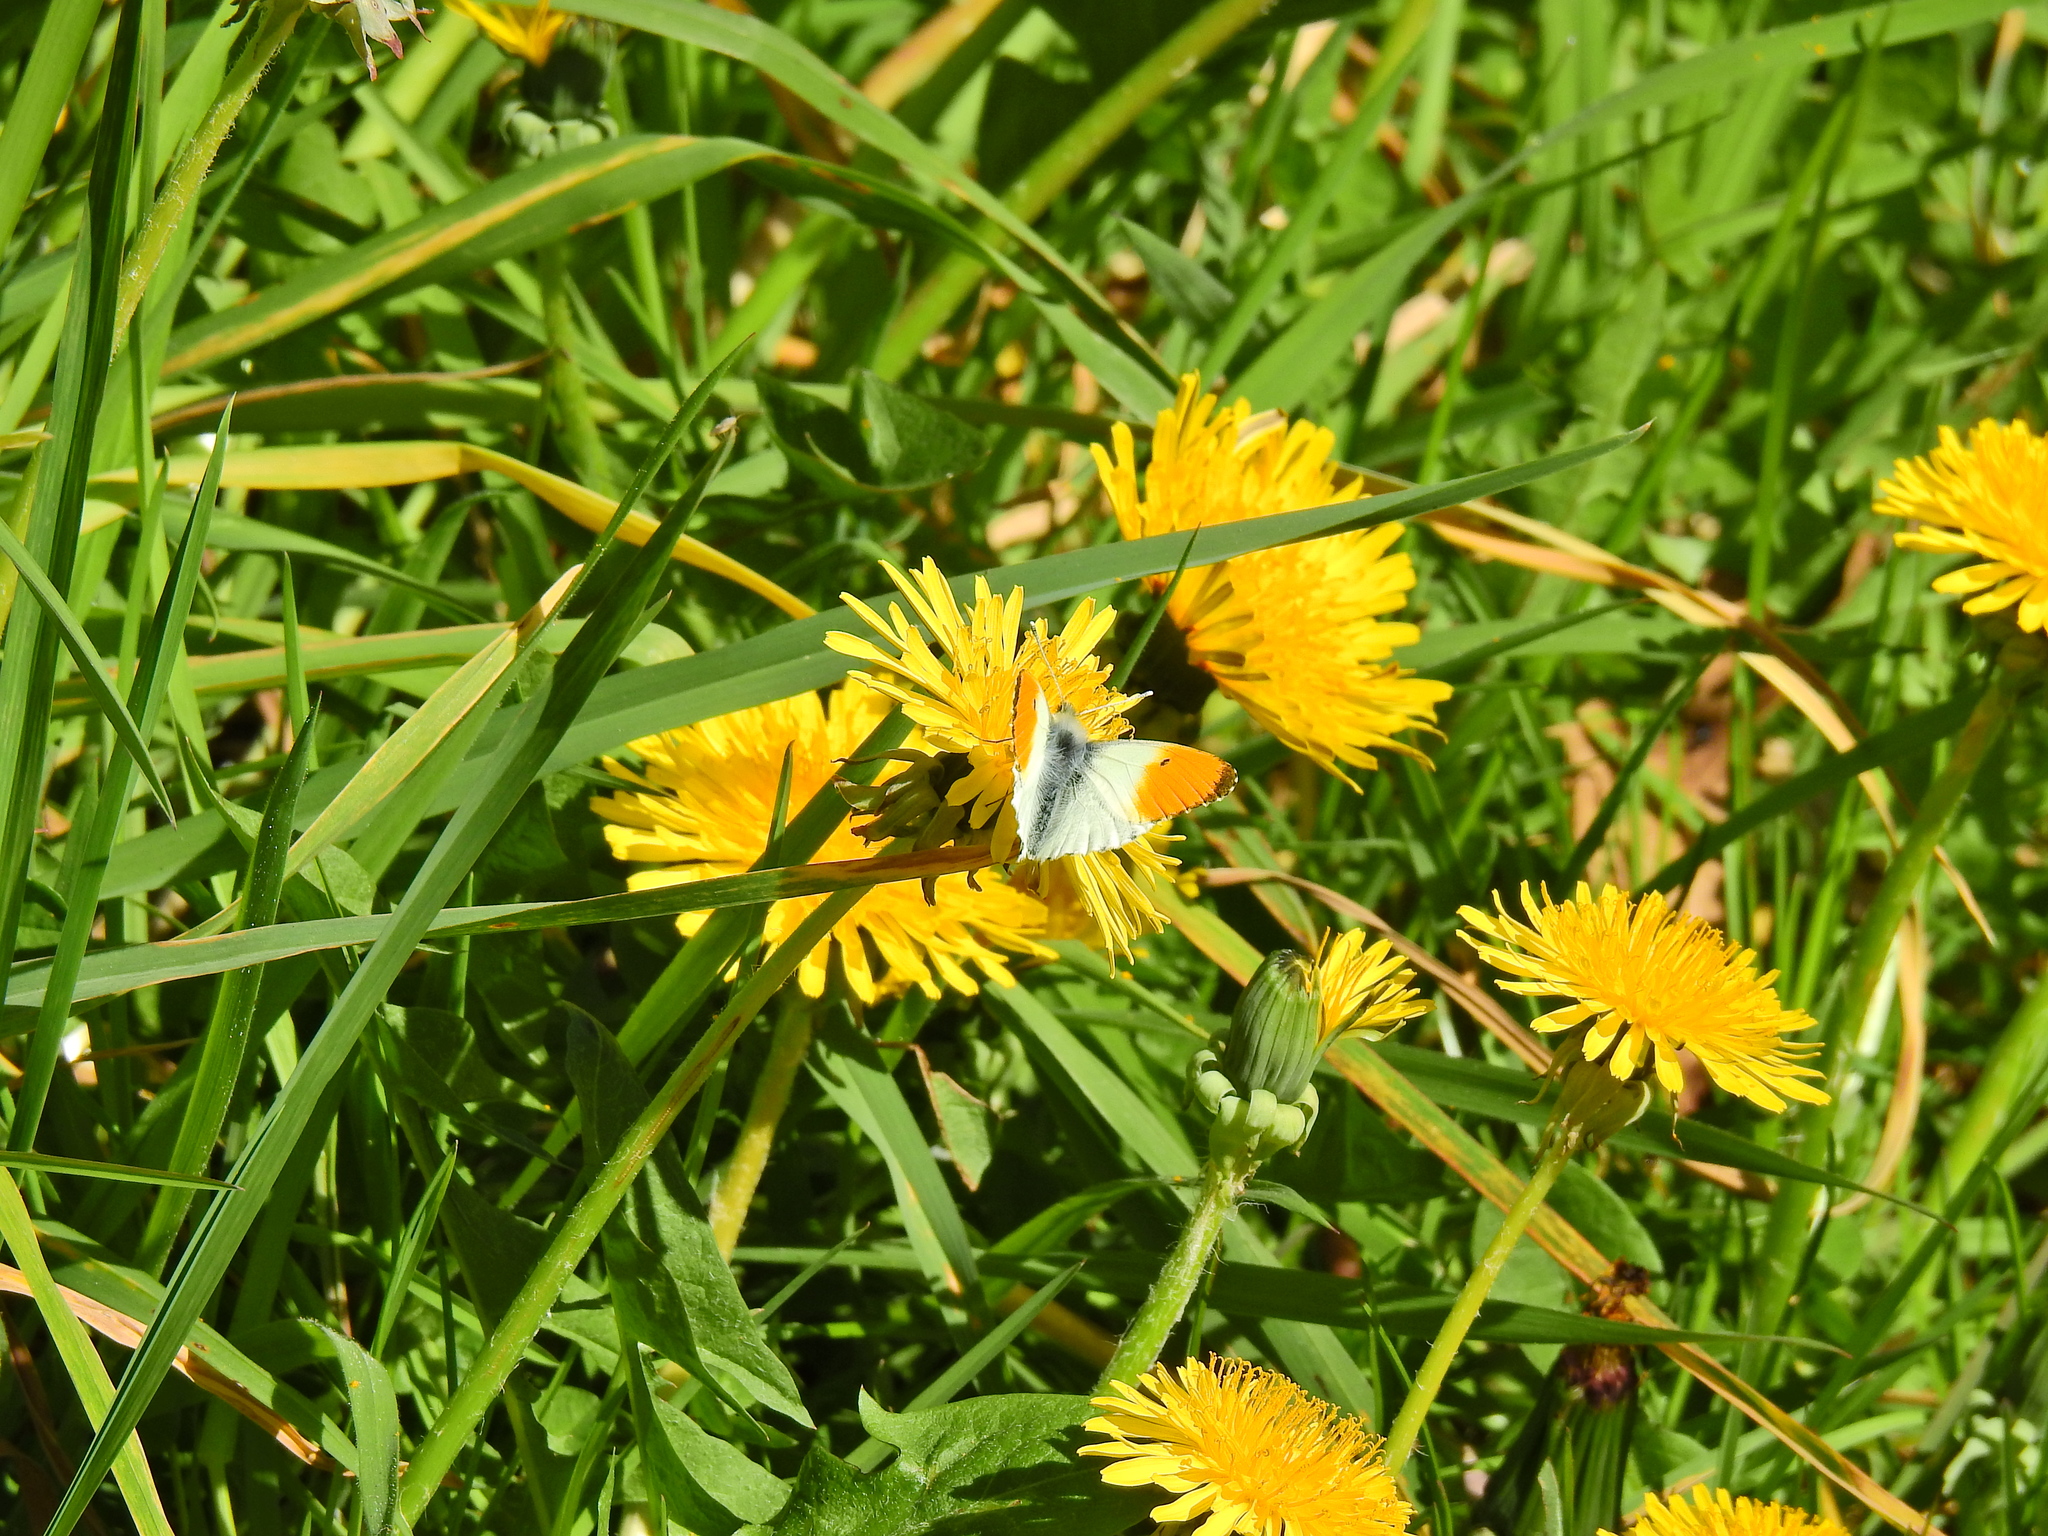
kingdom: Animalia
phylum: Arthropoda
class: Insecta
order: Lepidoptera
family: Pieridae
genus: Anthocharis
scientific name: Anthocharis cardamines
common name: Orange-tip
